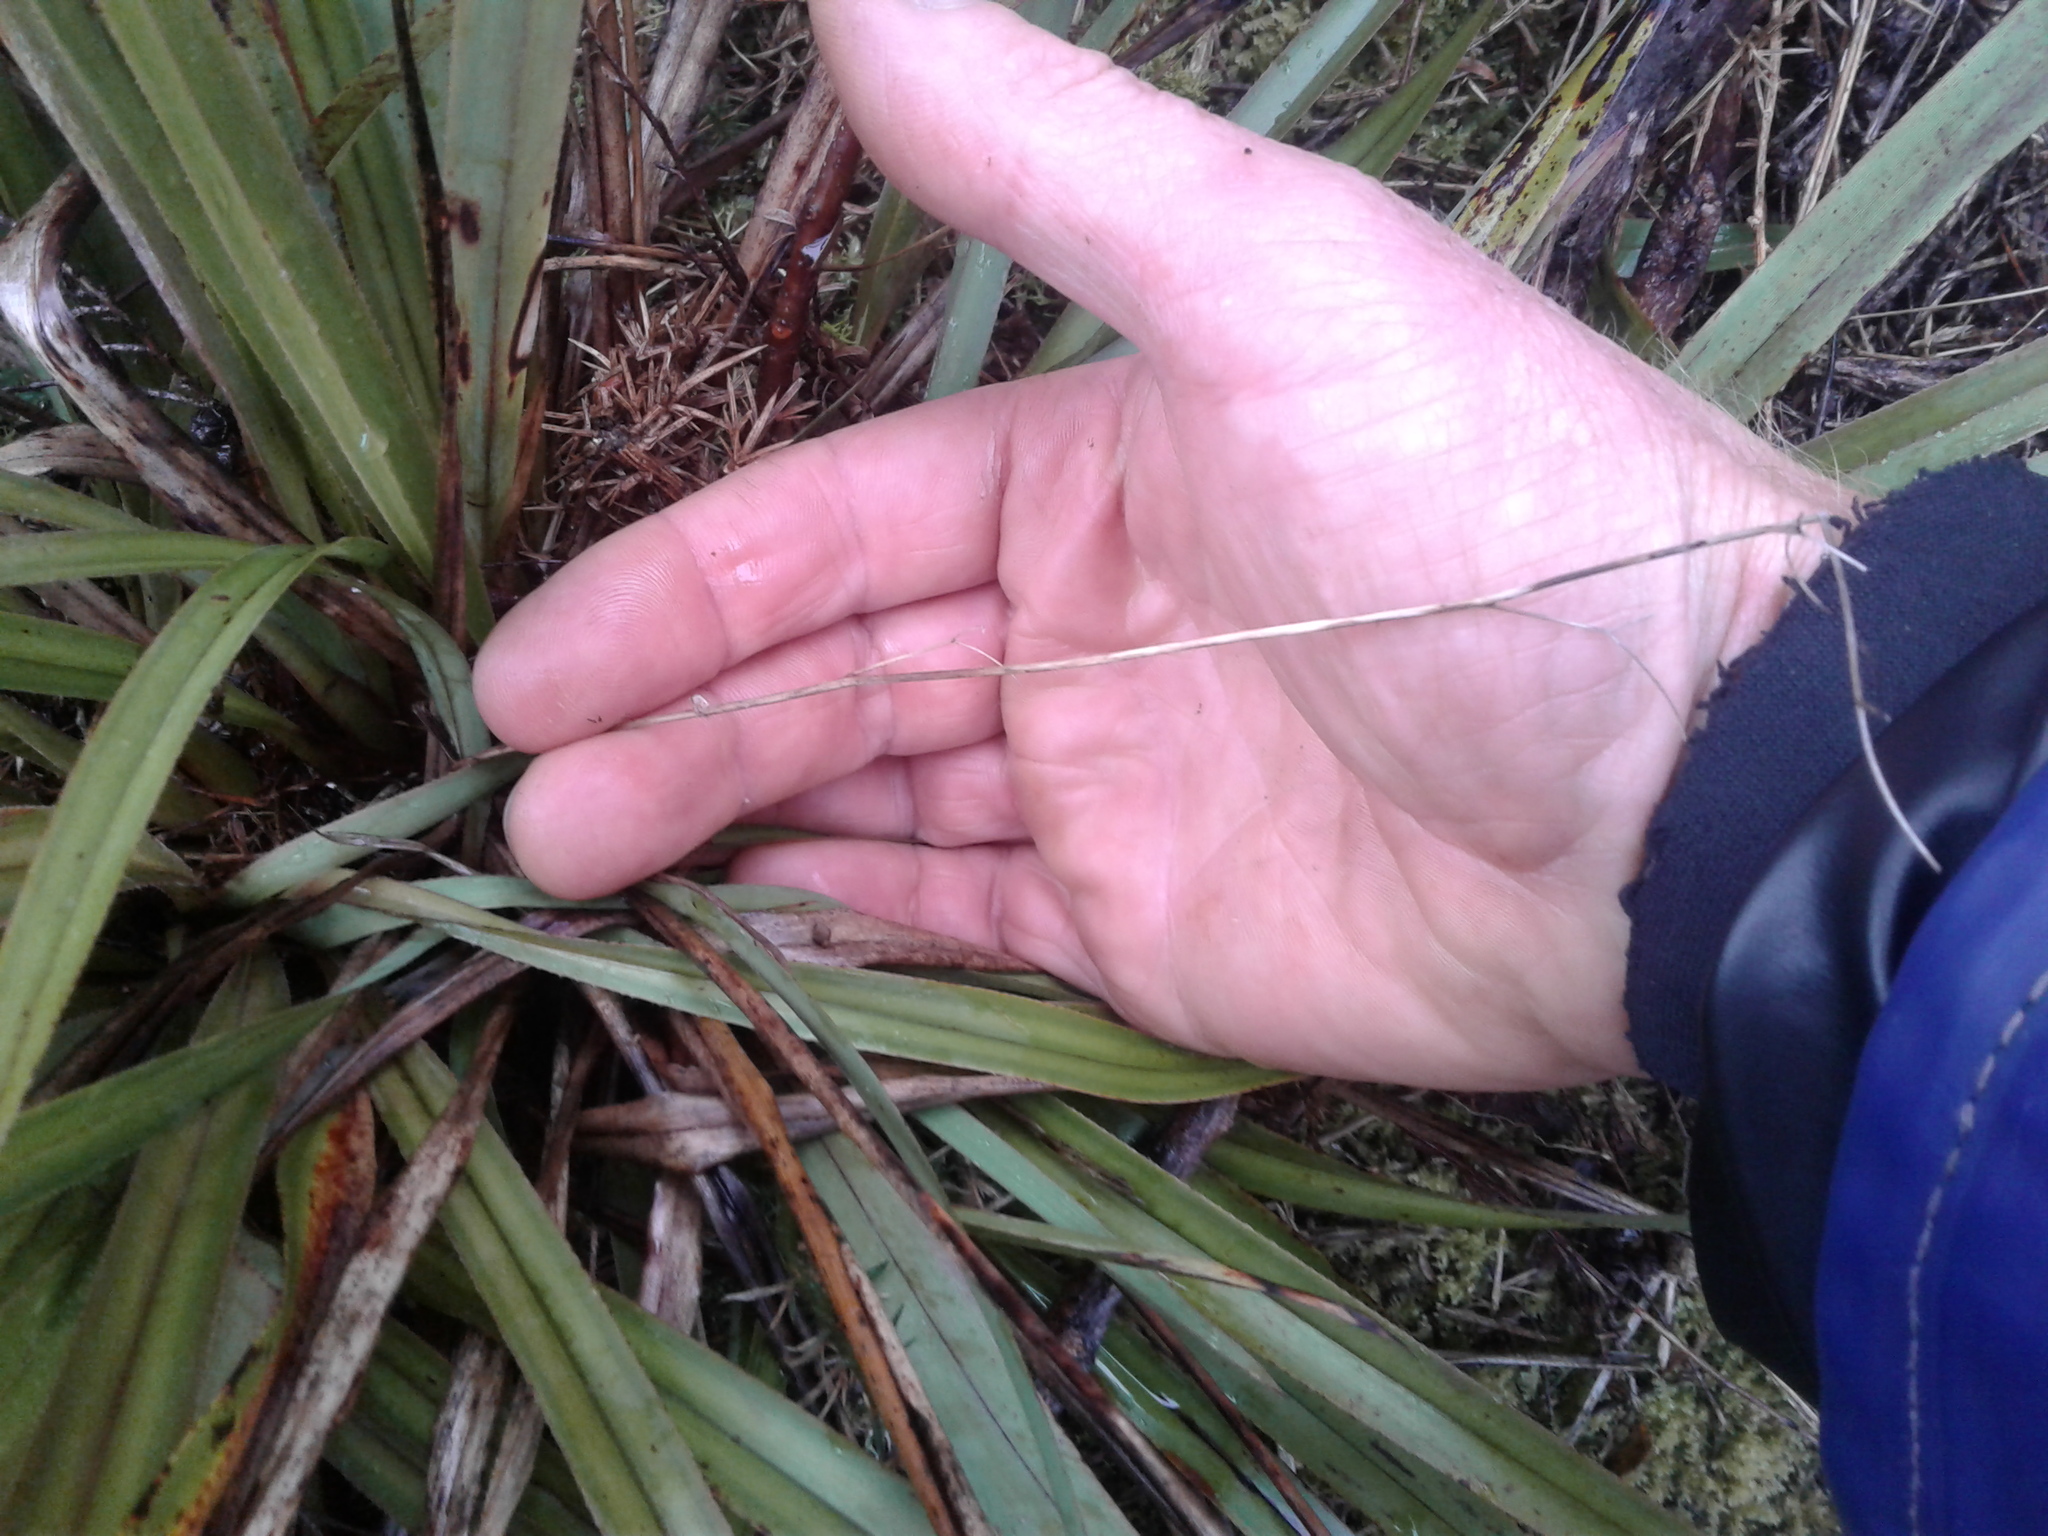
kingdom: Plantae
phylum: Tracheophyta
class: Liliopsida
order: Asparagales
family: Asphodelaceae
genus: Dianella
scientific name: Dianella nigra
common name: New zealand-blueberry
